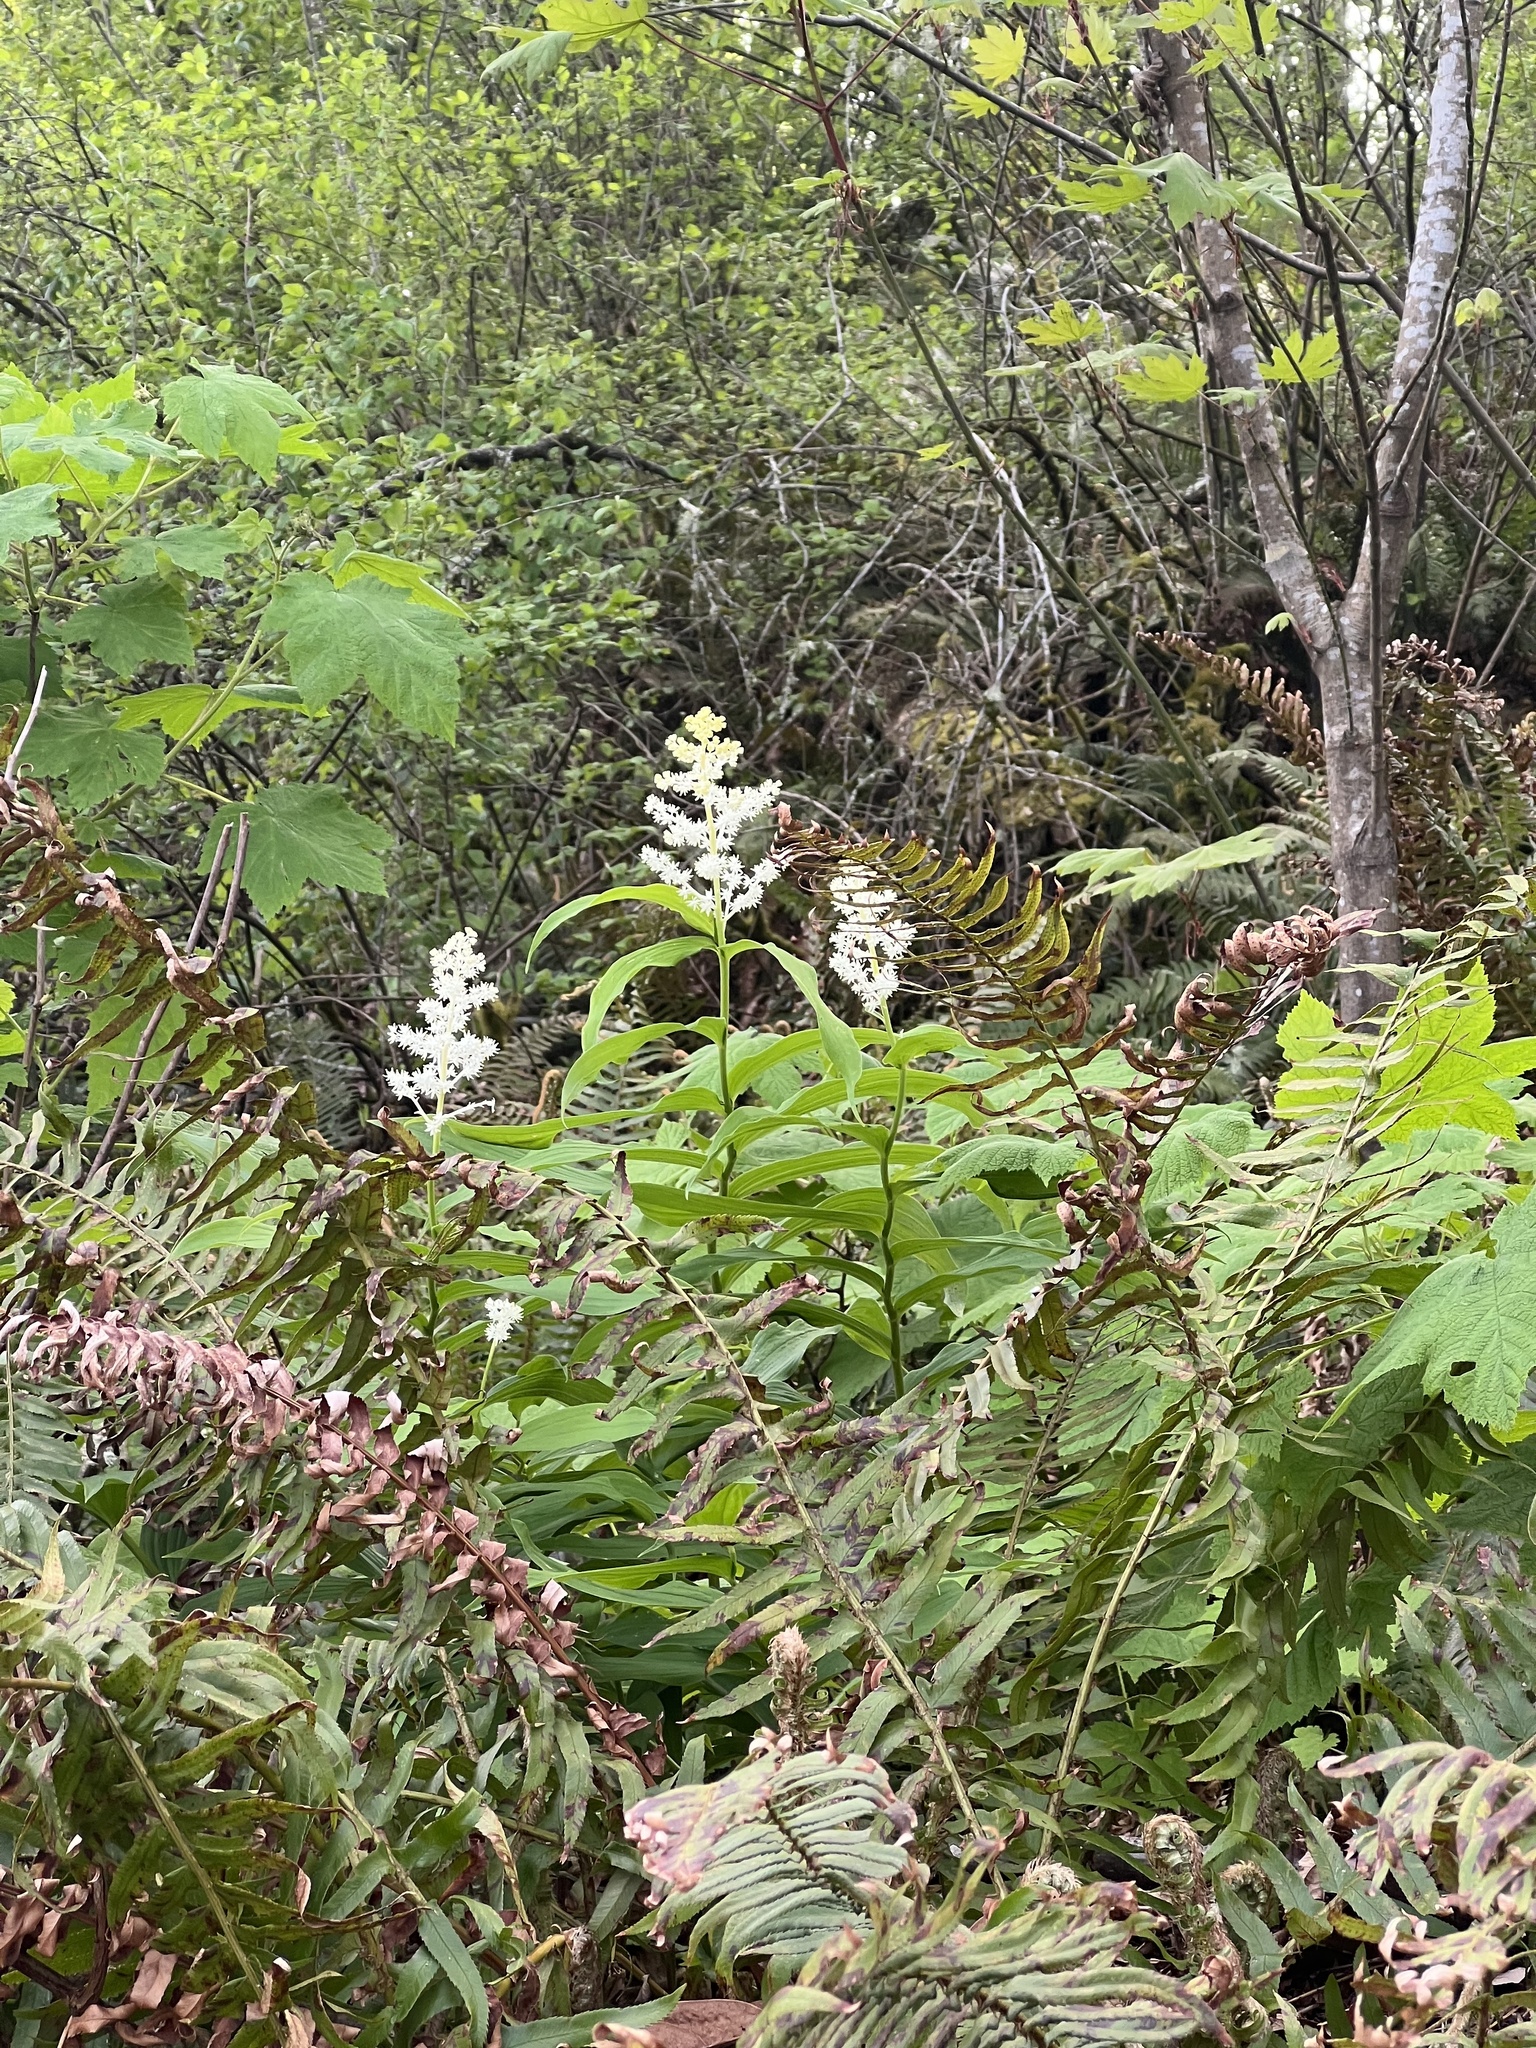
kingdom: Plantae
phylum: Tracheophyta
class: Liliopsida
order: Asparagales
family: Asparagaceae
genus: Maianthemum
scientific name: Maianthemum racemosum
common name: False spikenard
